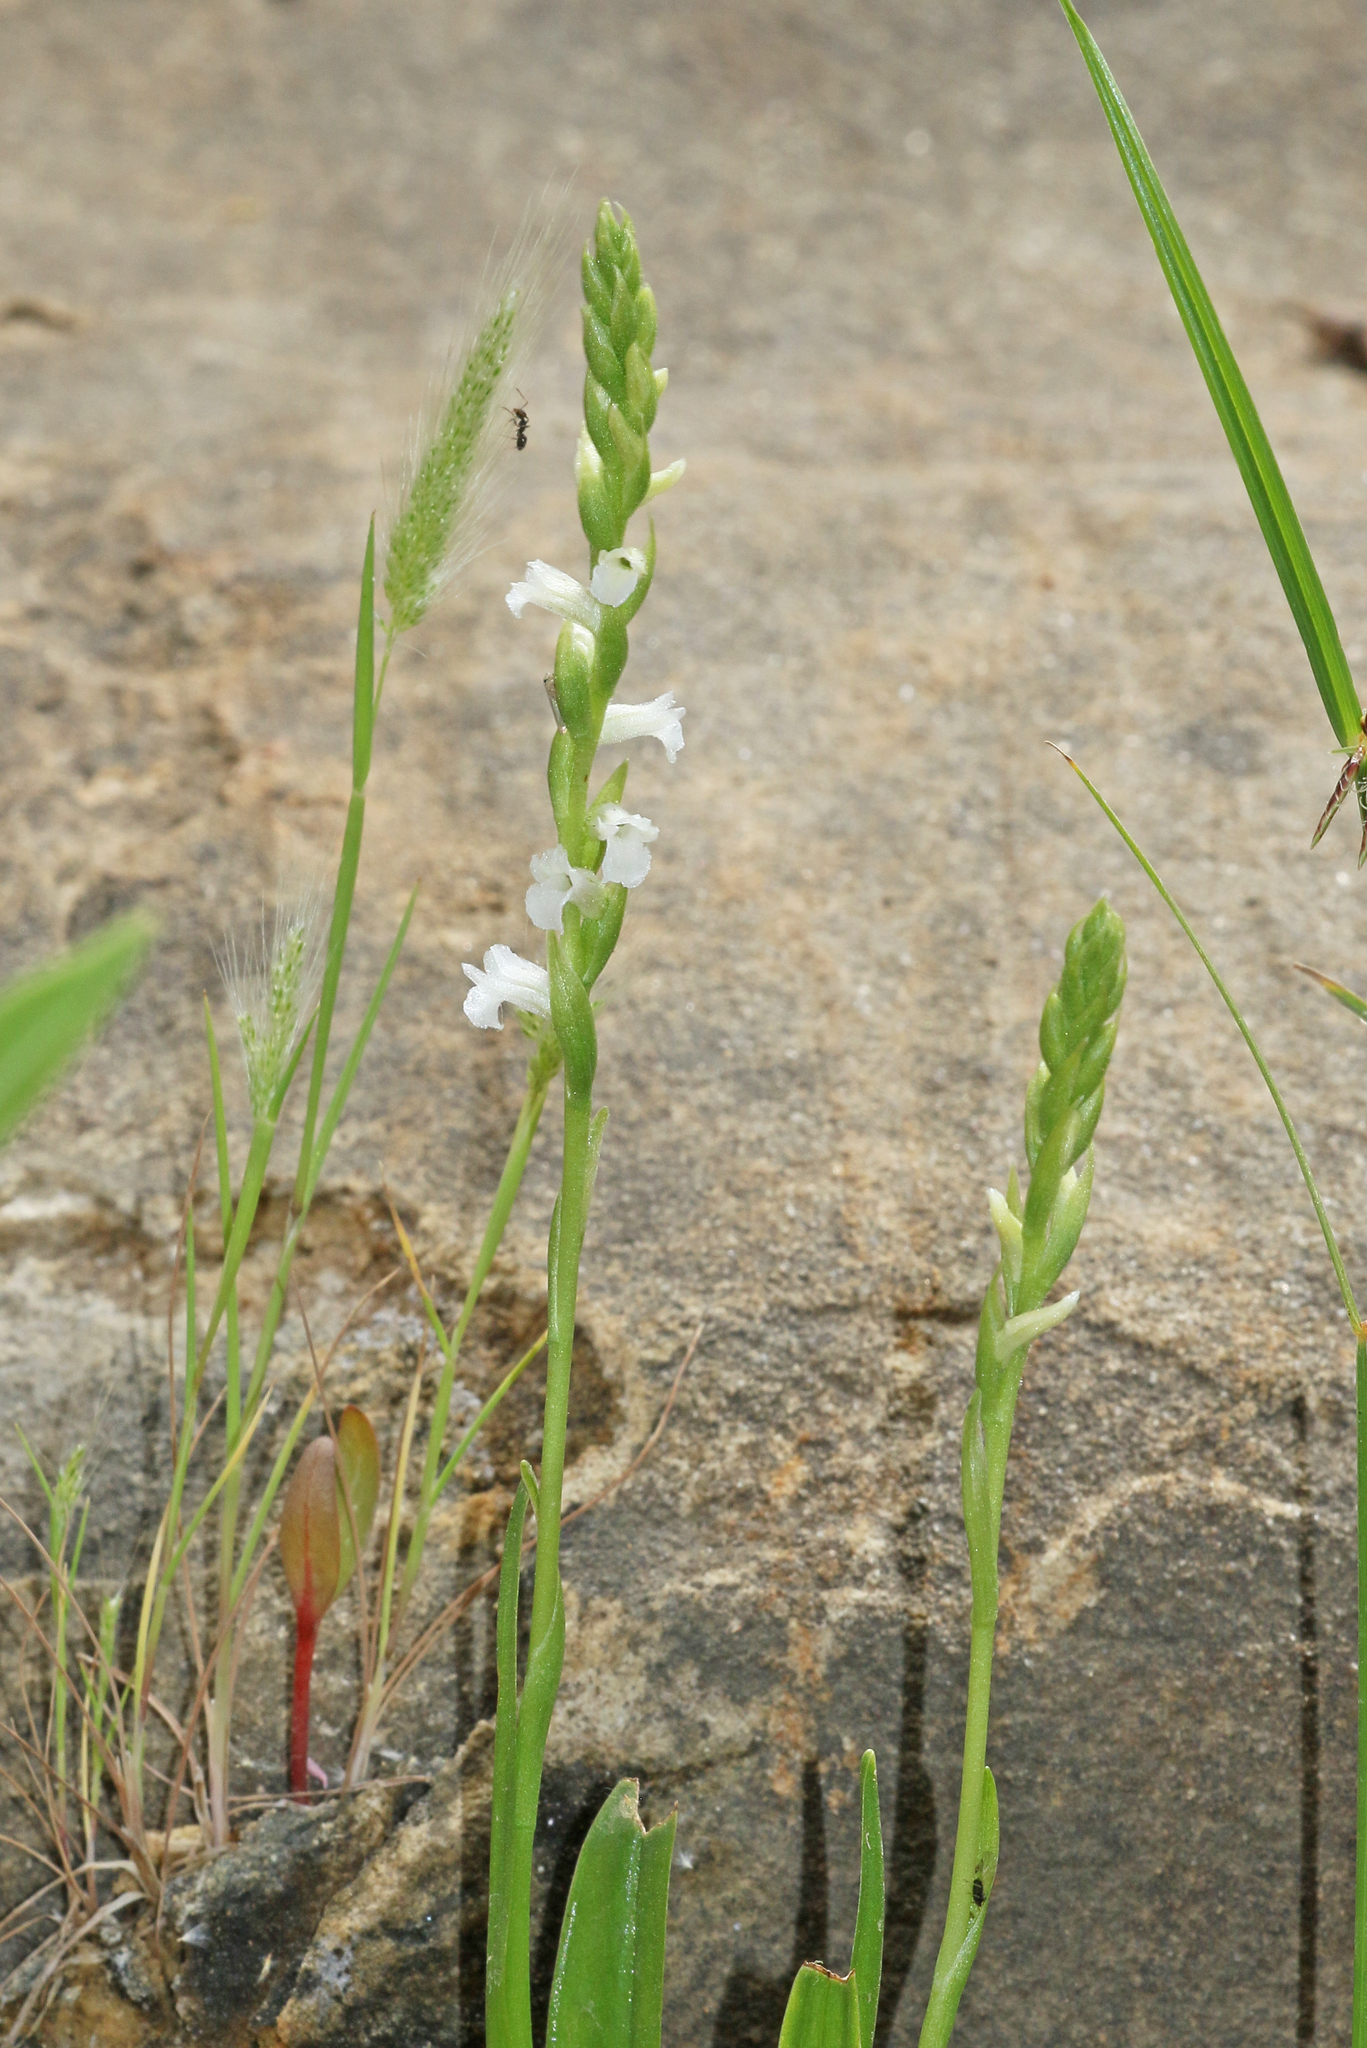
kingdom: Plantae
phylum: Tracheophyta
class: Liliopsida
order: Asparagales
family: Orchidaceae
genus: Spiranthes
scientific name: Spiranthes aestivalis
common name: Summer lady's-tresses
